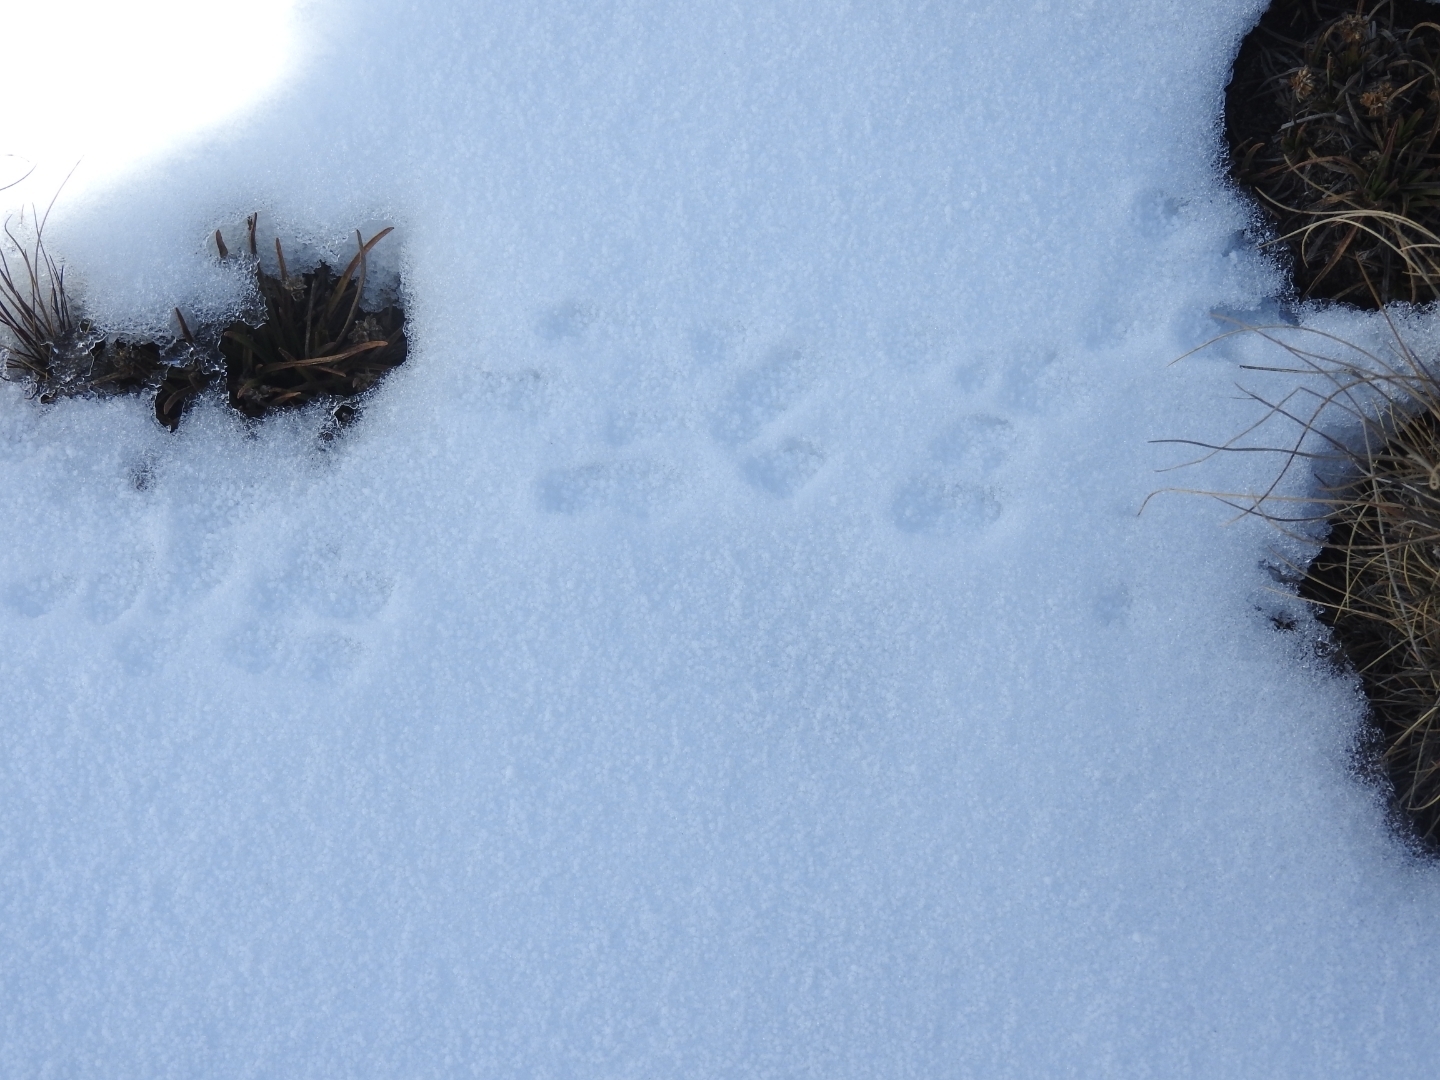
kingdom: Animalia
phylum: Chordata
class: Mammalia
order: Rodentia
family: Sciuridae
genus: Otospermophilus
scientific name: Otospermophilus variegatus
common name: Rock squirrel
